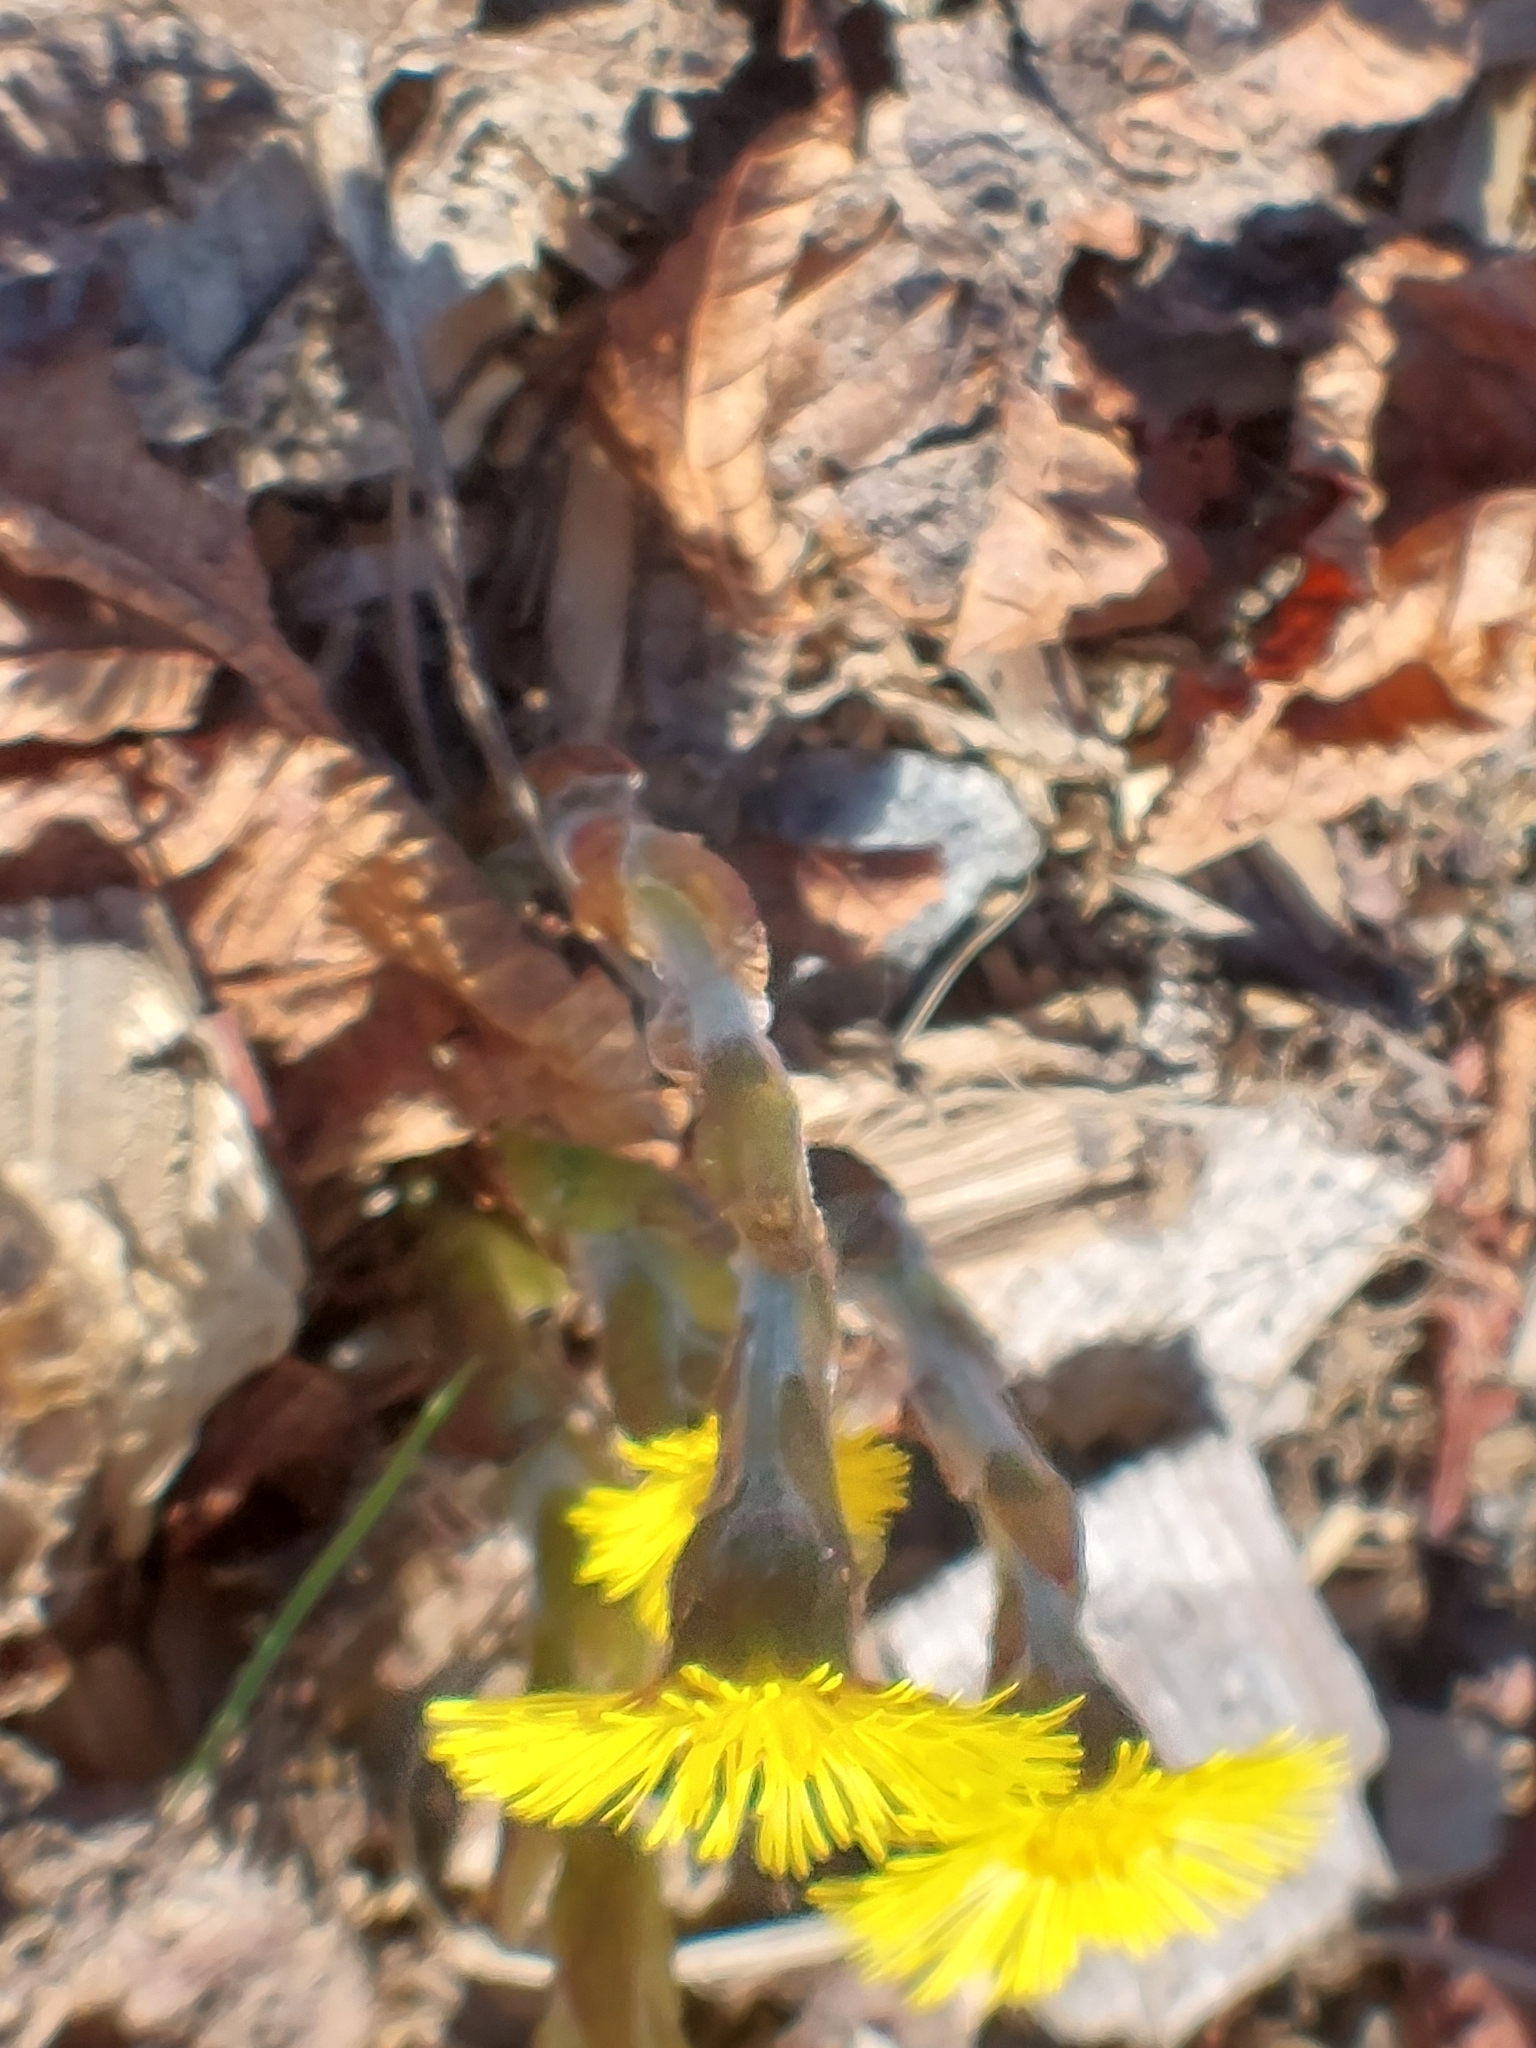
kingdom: Plantae
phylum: Tracheophyta
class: Magnoliopsida
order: Asterales
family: Asteraceae
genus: Tussilago
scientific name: Tussilago farfara
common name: Coltsfoot
